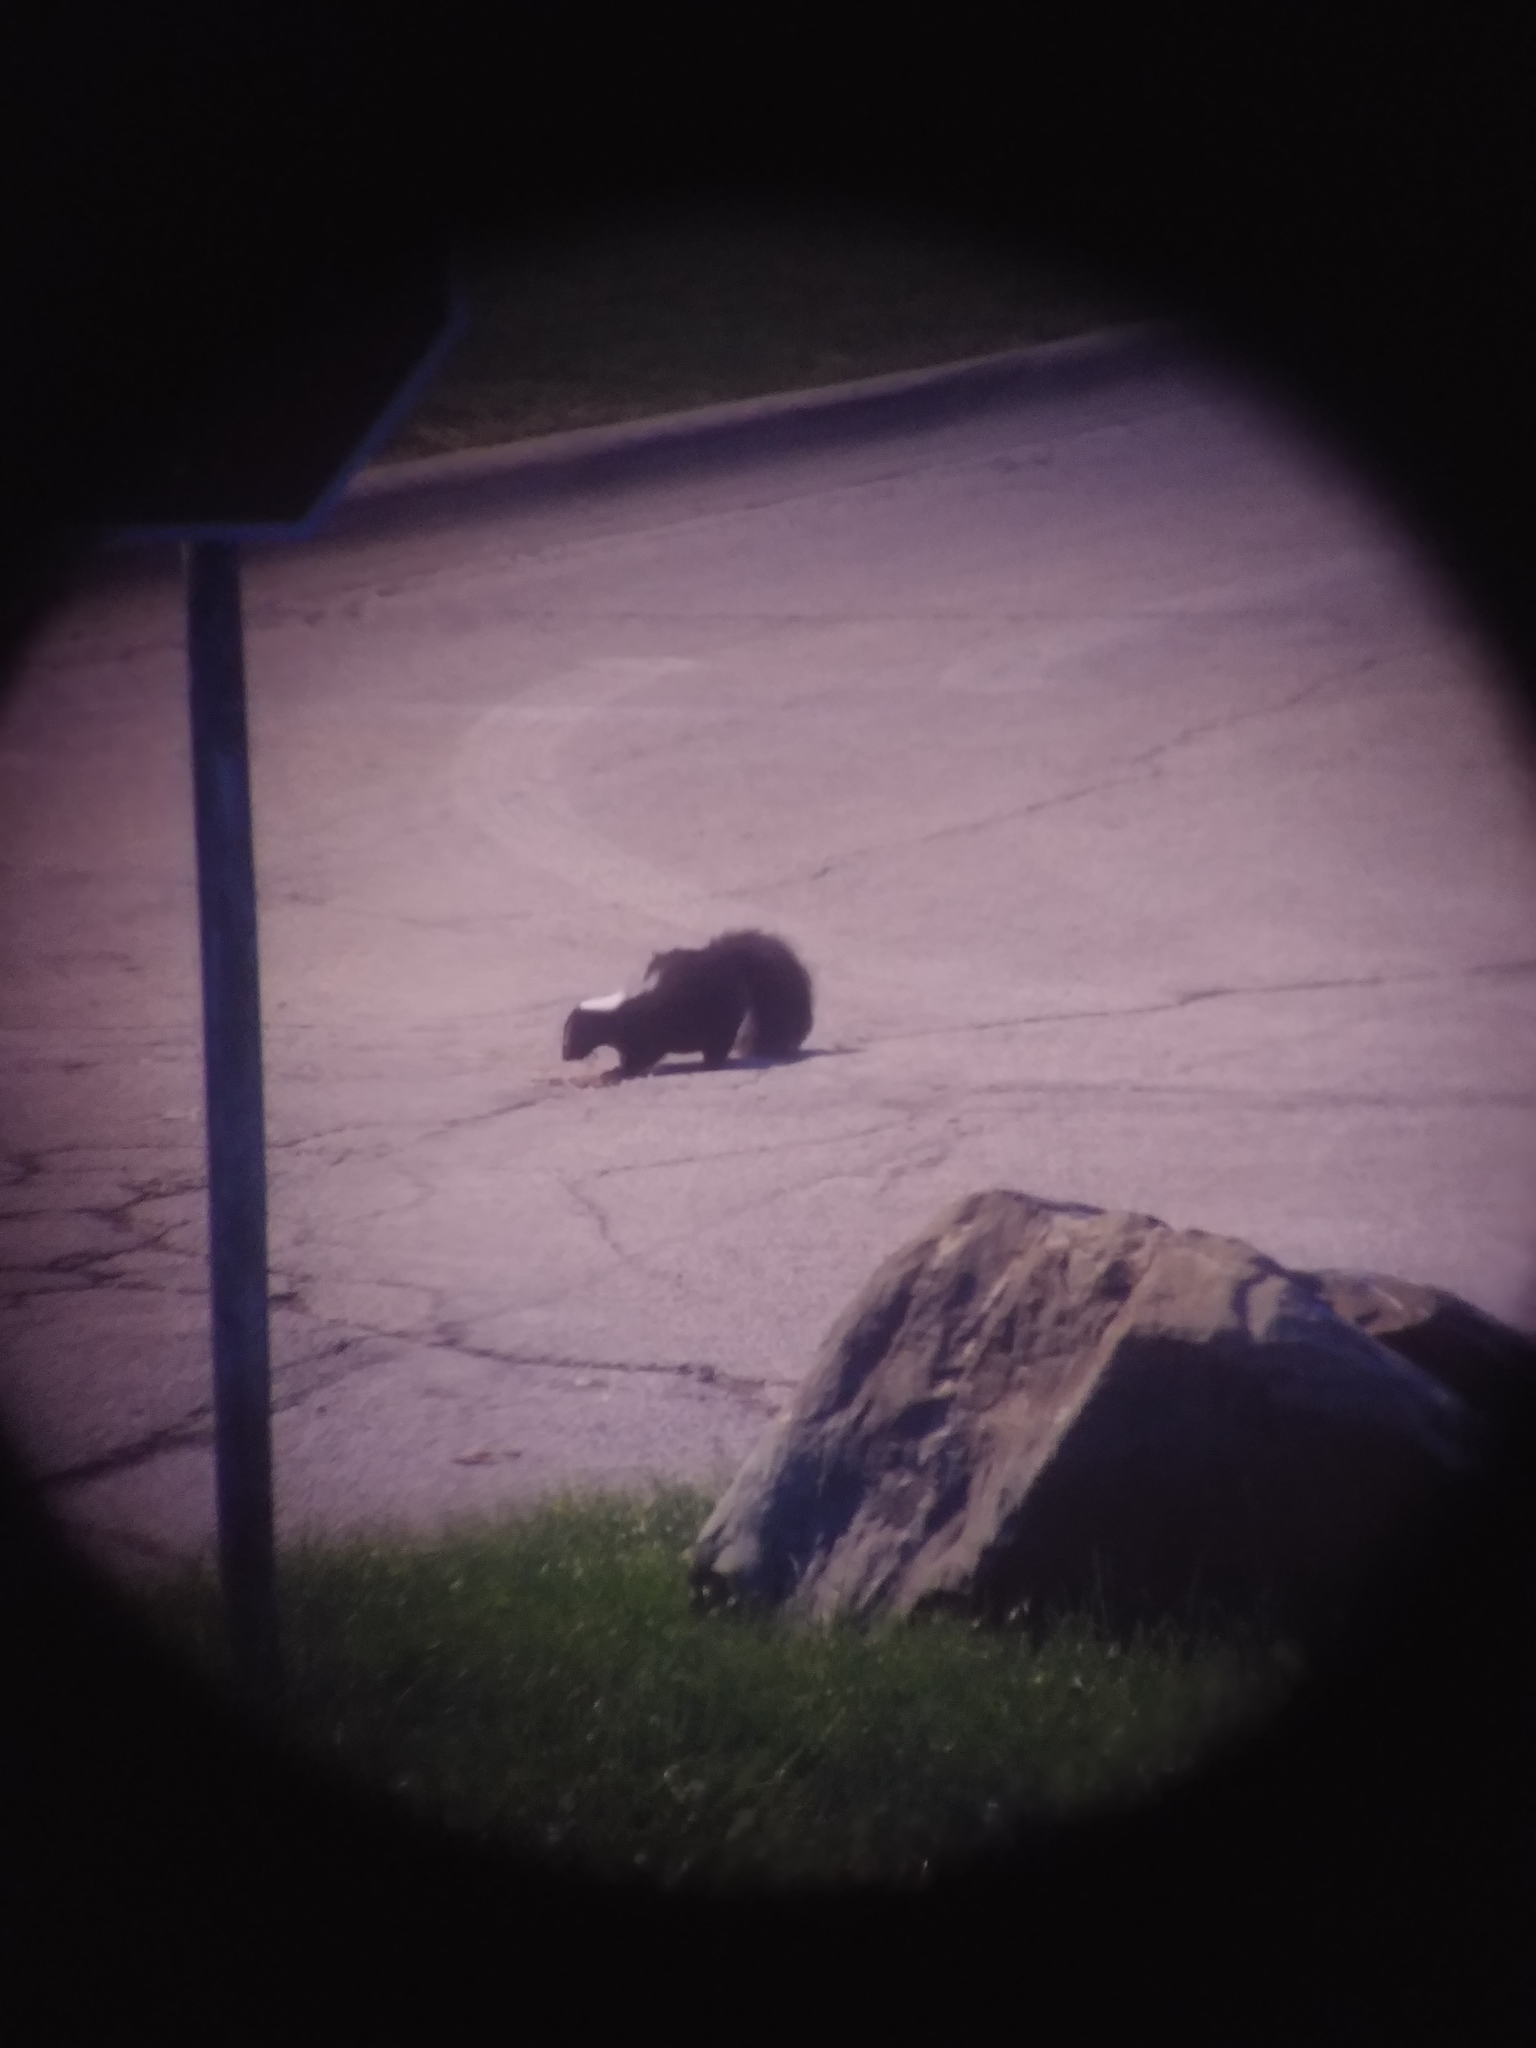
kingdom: Animalia
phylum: Chordata
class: Mammalia
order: Carnivora
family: Mephitidae
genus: Mephitis
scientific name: Mephitis mephitis
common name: Striped skunk
